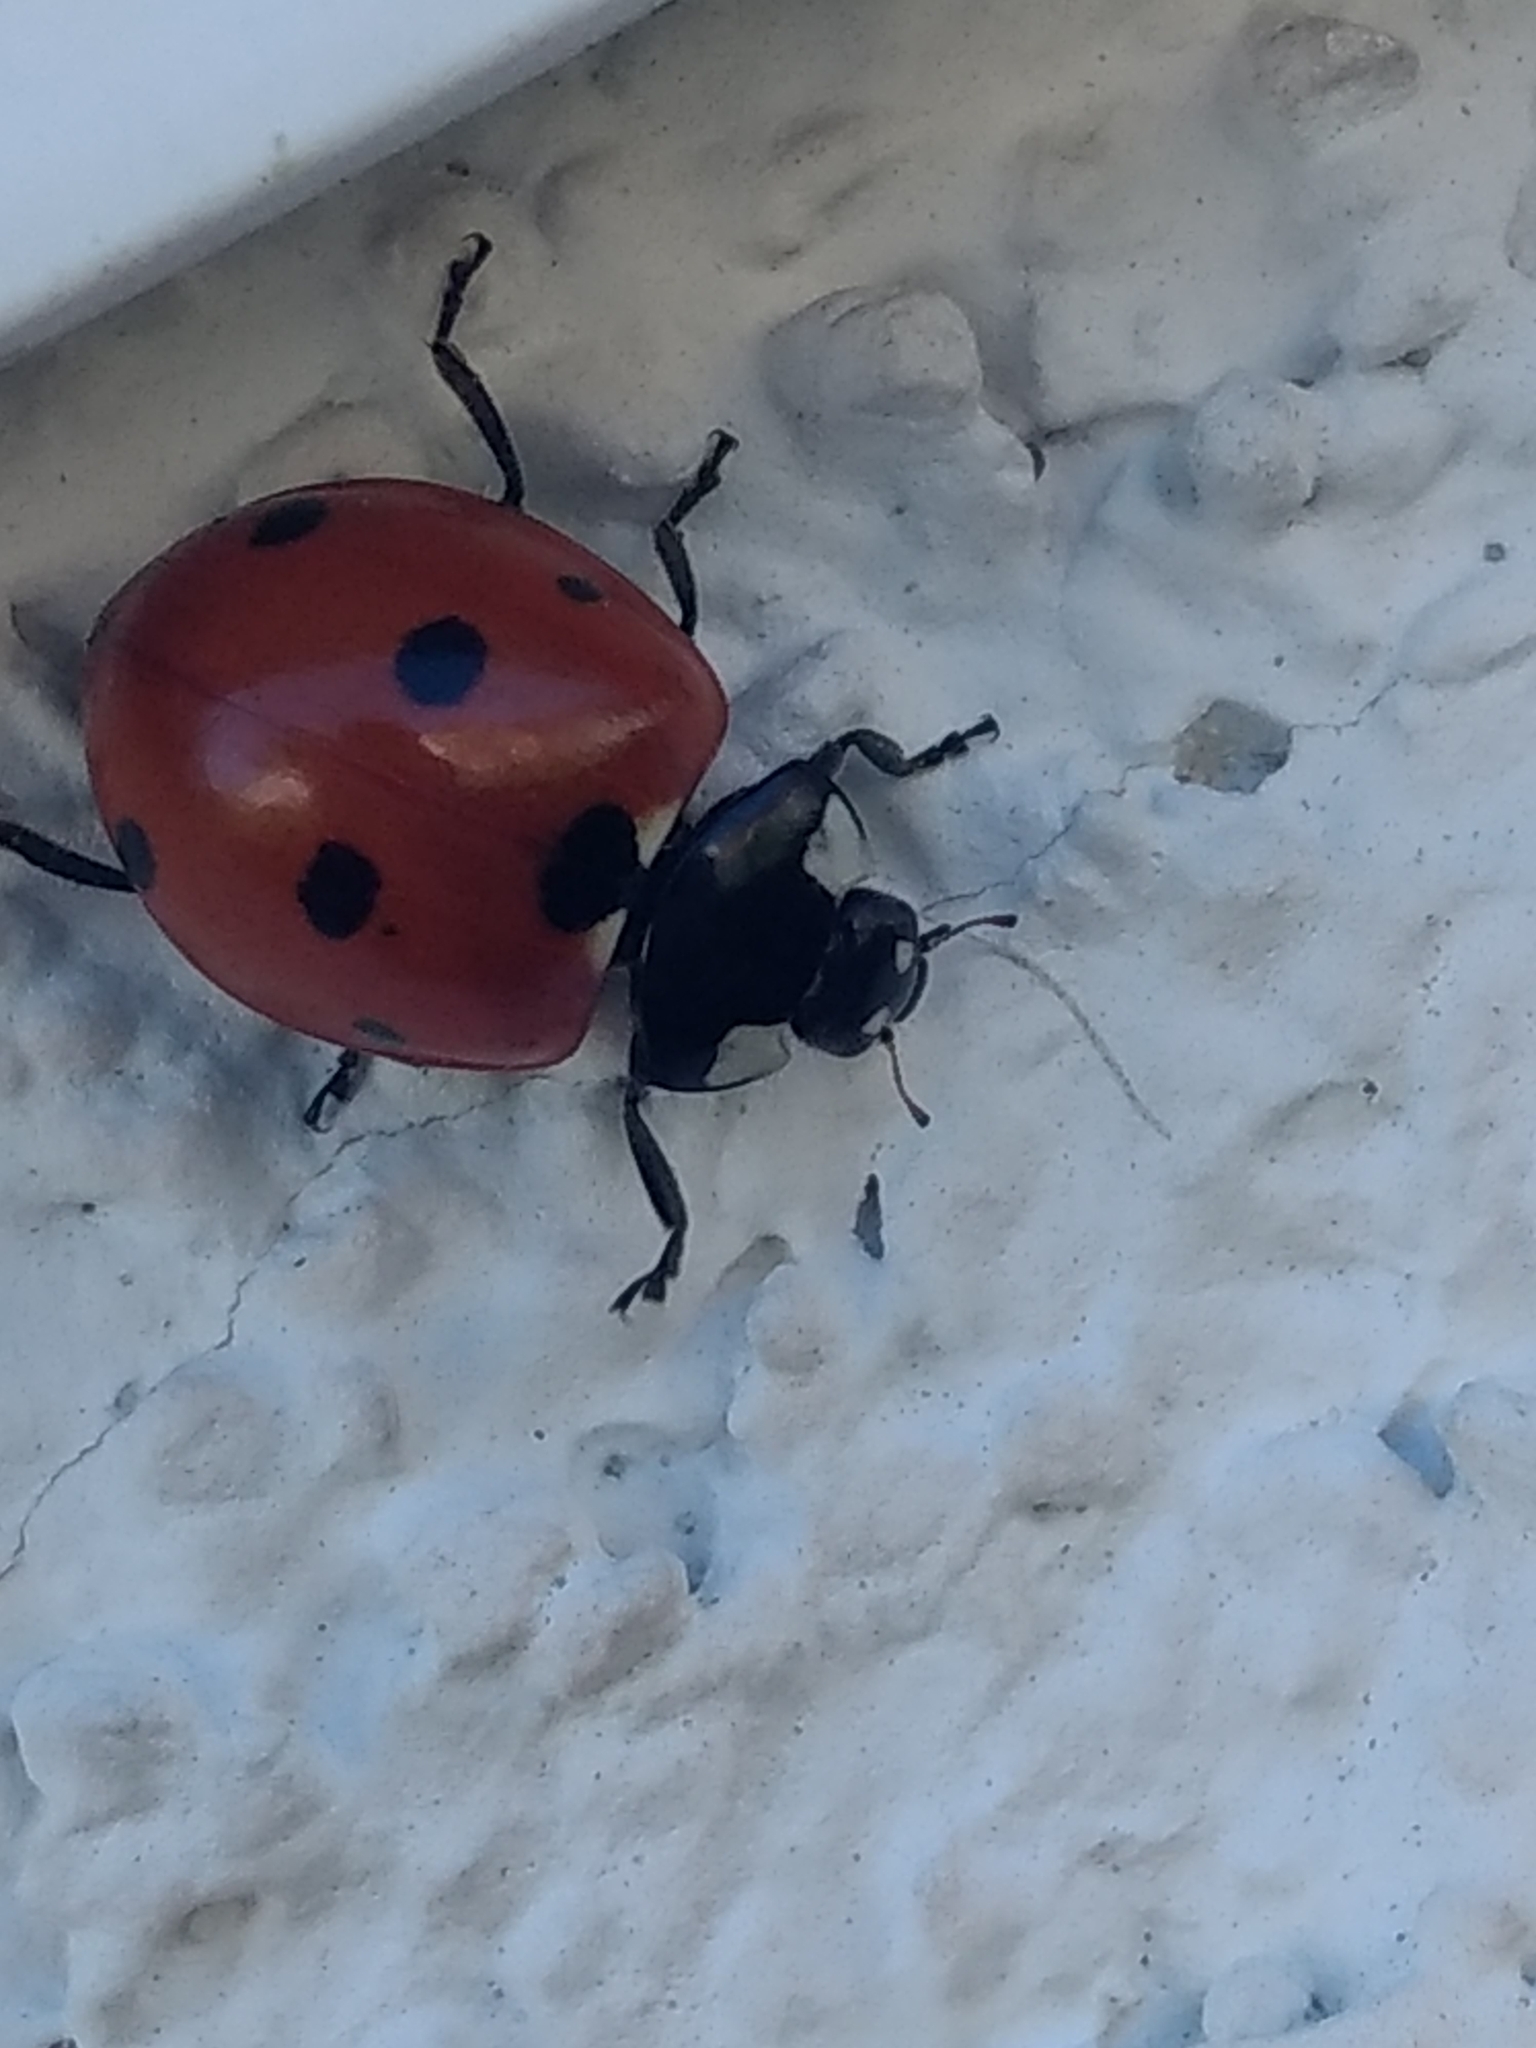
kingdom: Animalia
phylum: Arthropoda
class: Insecta
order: Coleoptera
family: Coccinellidae
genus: Coccinella
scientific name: Coccinella septempunctata
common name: Sevenspotted lady beetle
